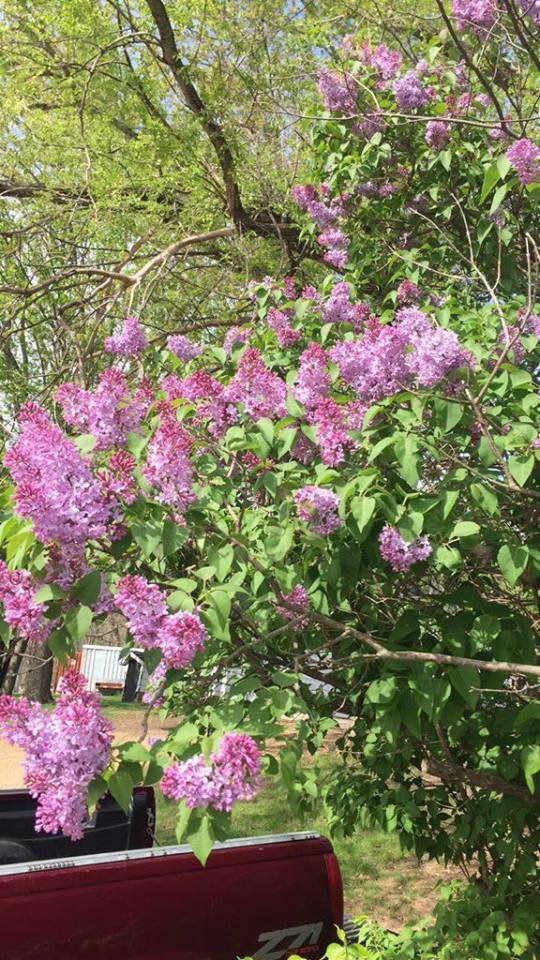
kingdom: Plantae
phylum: Tracheophyta
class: Magnoliopsida
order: Lamiales
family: Oleaceae
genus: Syringa
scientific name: Syringa vulgaris
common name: Common lilac
